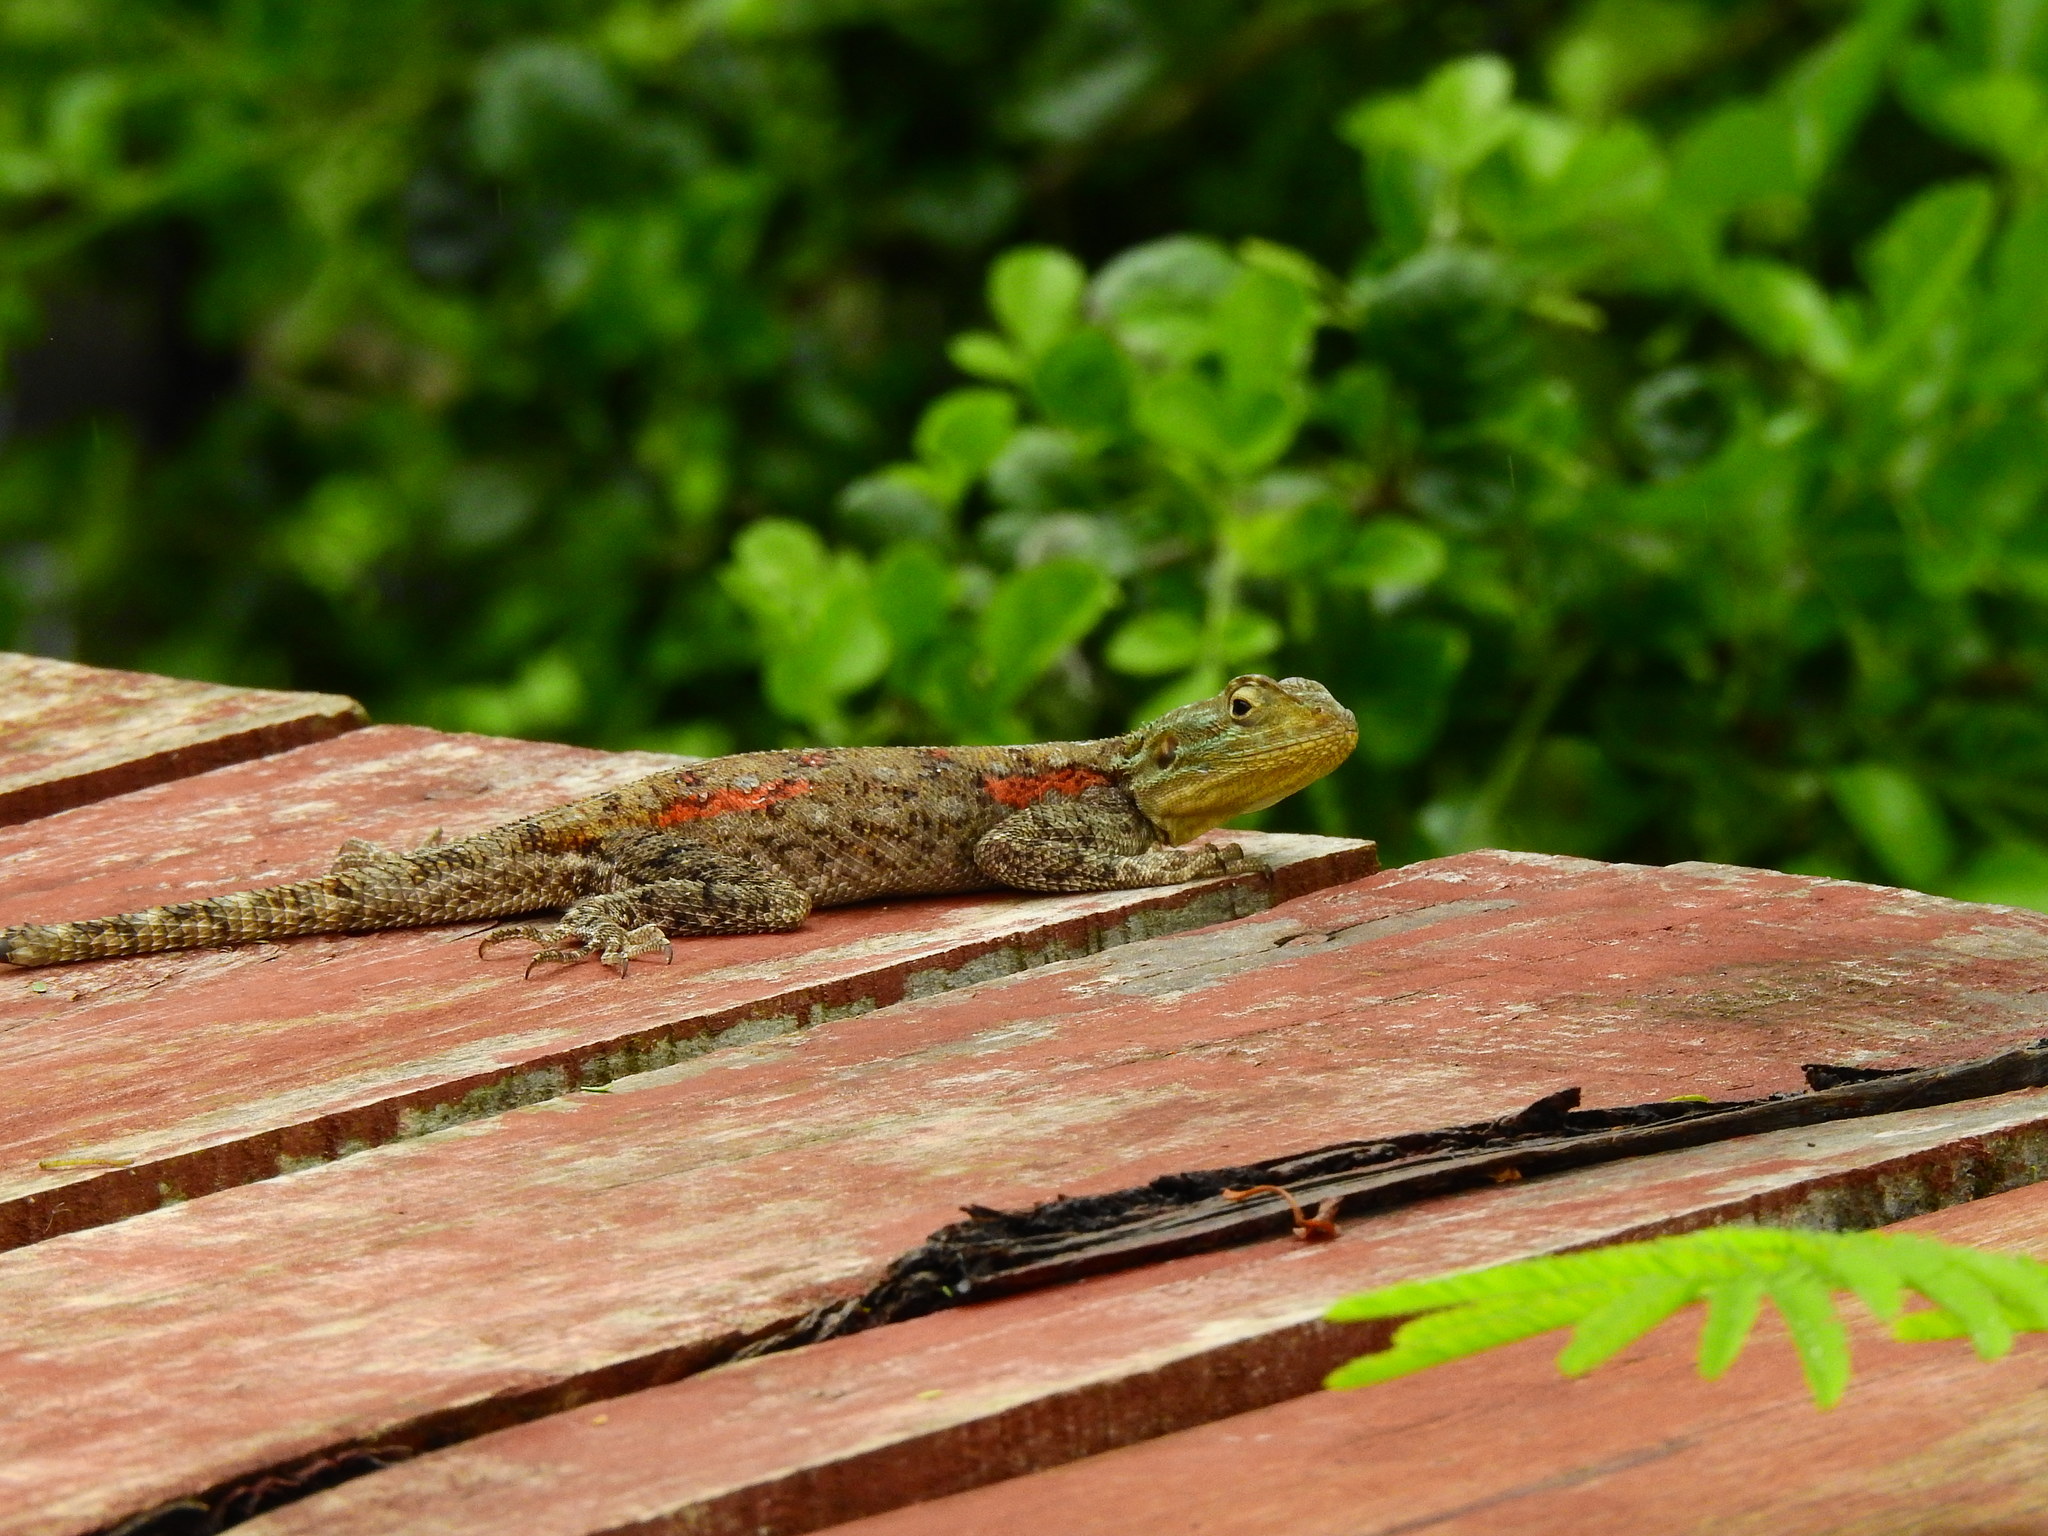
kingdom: Animalia
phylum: Chordata
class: Squamata
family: Agamidae
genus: Agama
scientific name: Agama lionotus
